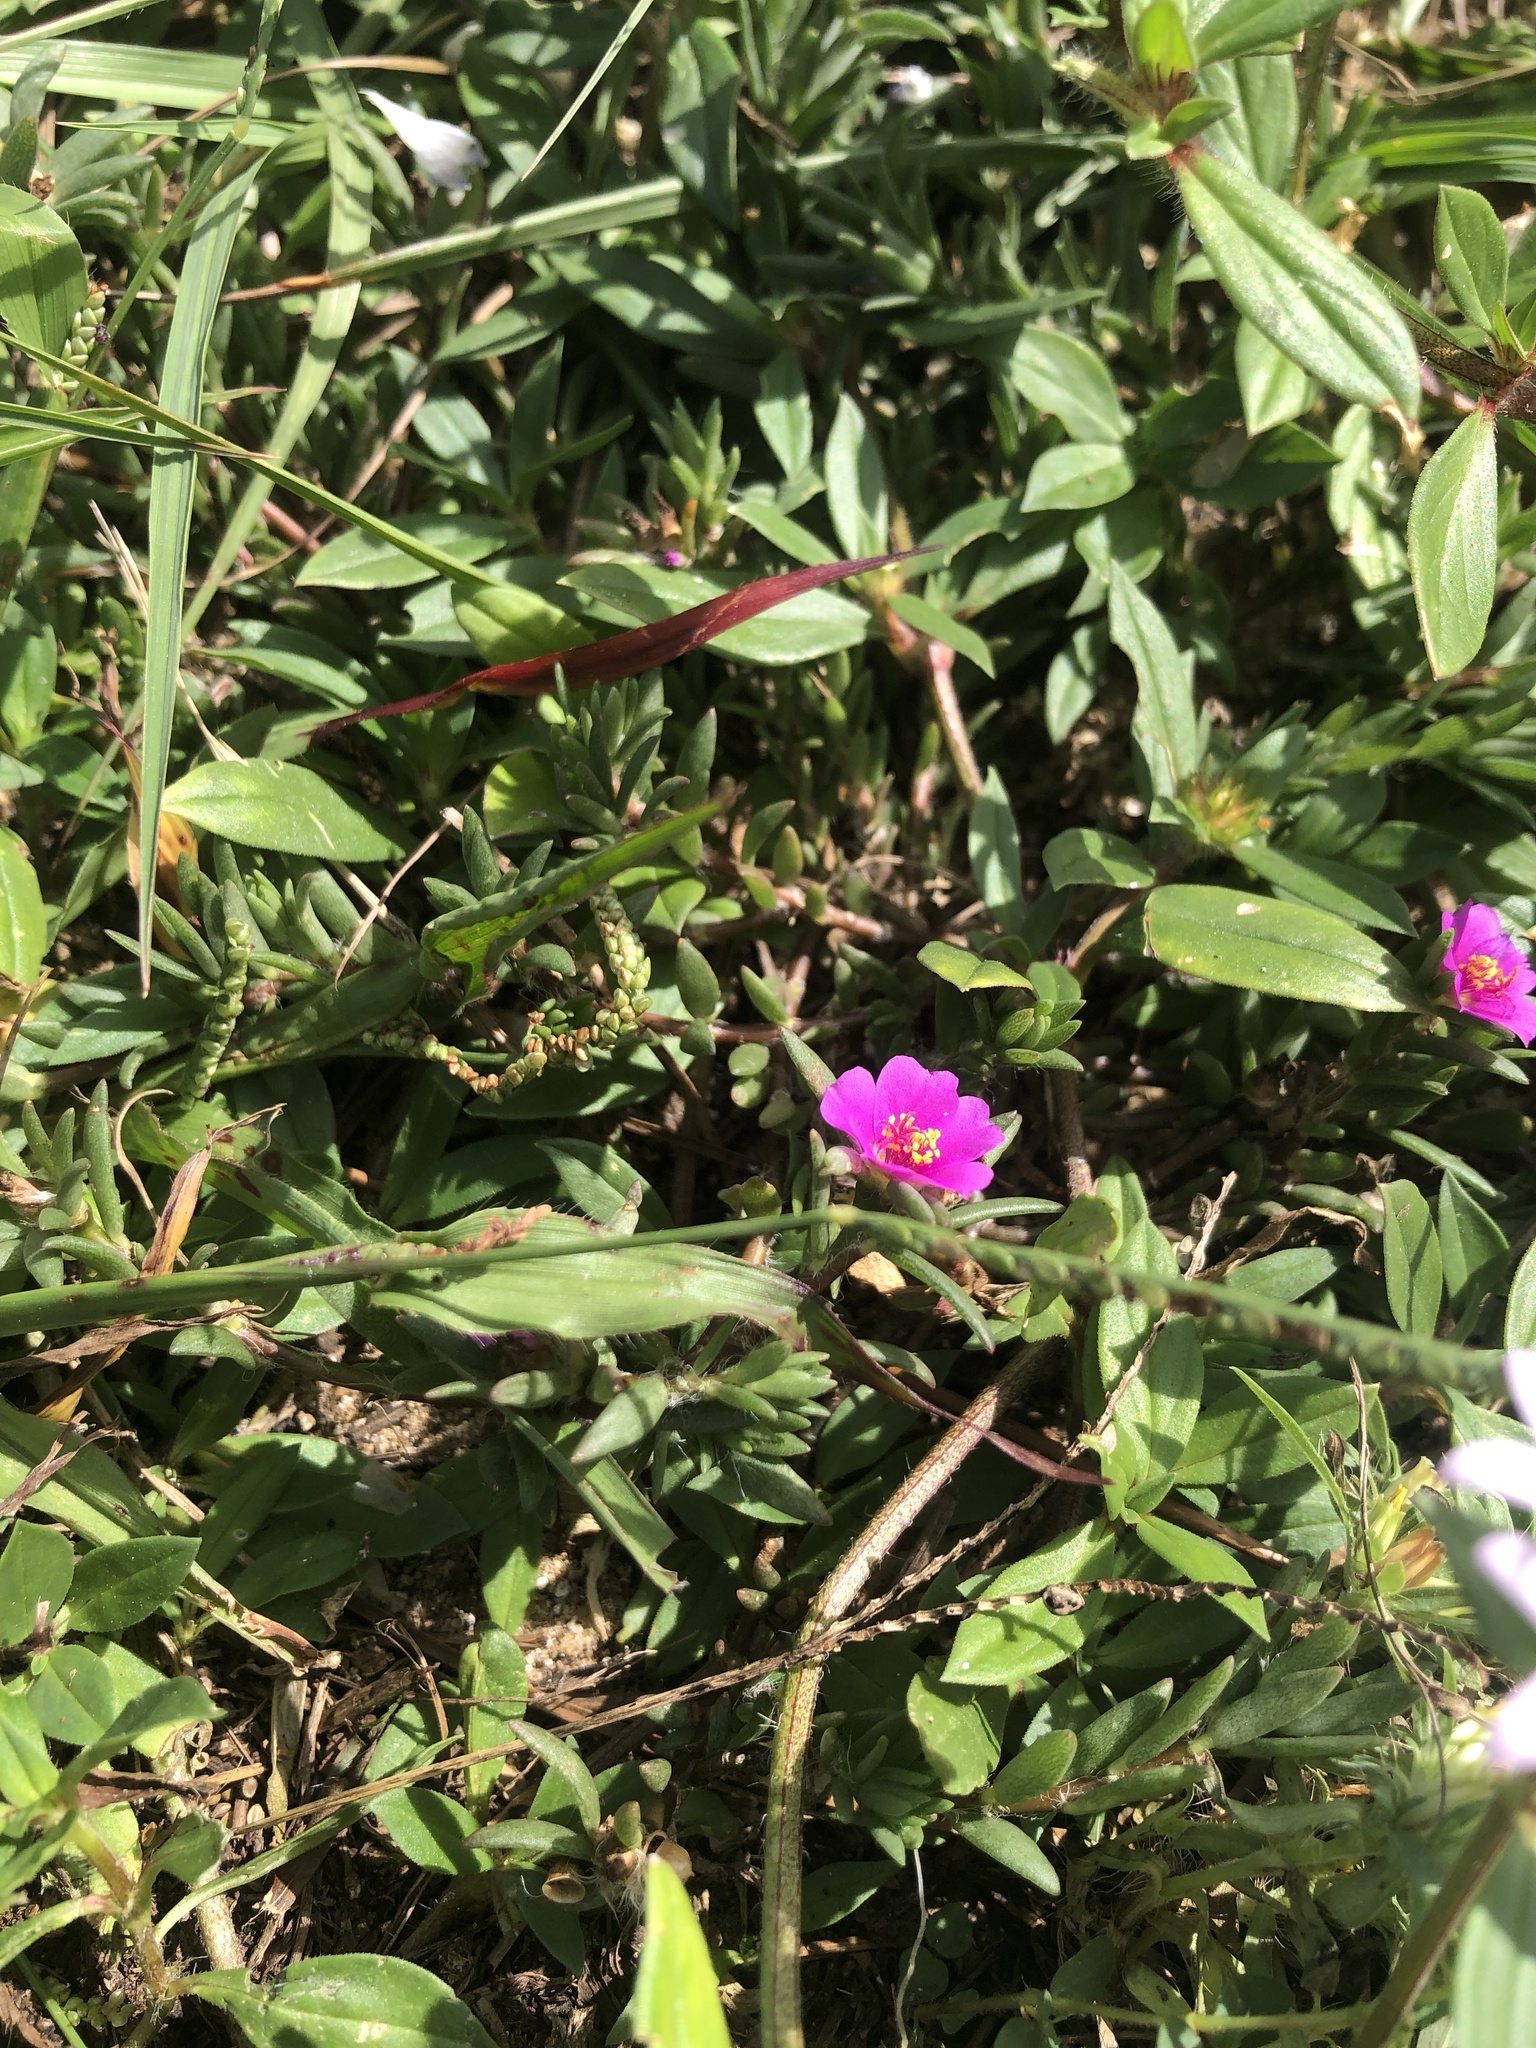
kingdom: Plantae
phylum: Tracheophyta
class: Magnoliopsida
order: Caryophyllales
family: Portulacaceae
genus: Portulaca
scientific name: Portulaca pilosa
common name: Kiss me quick
